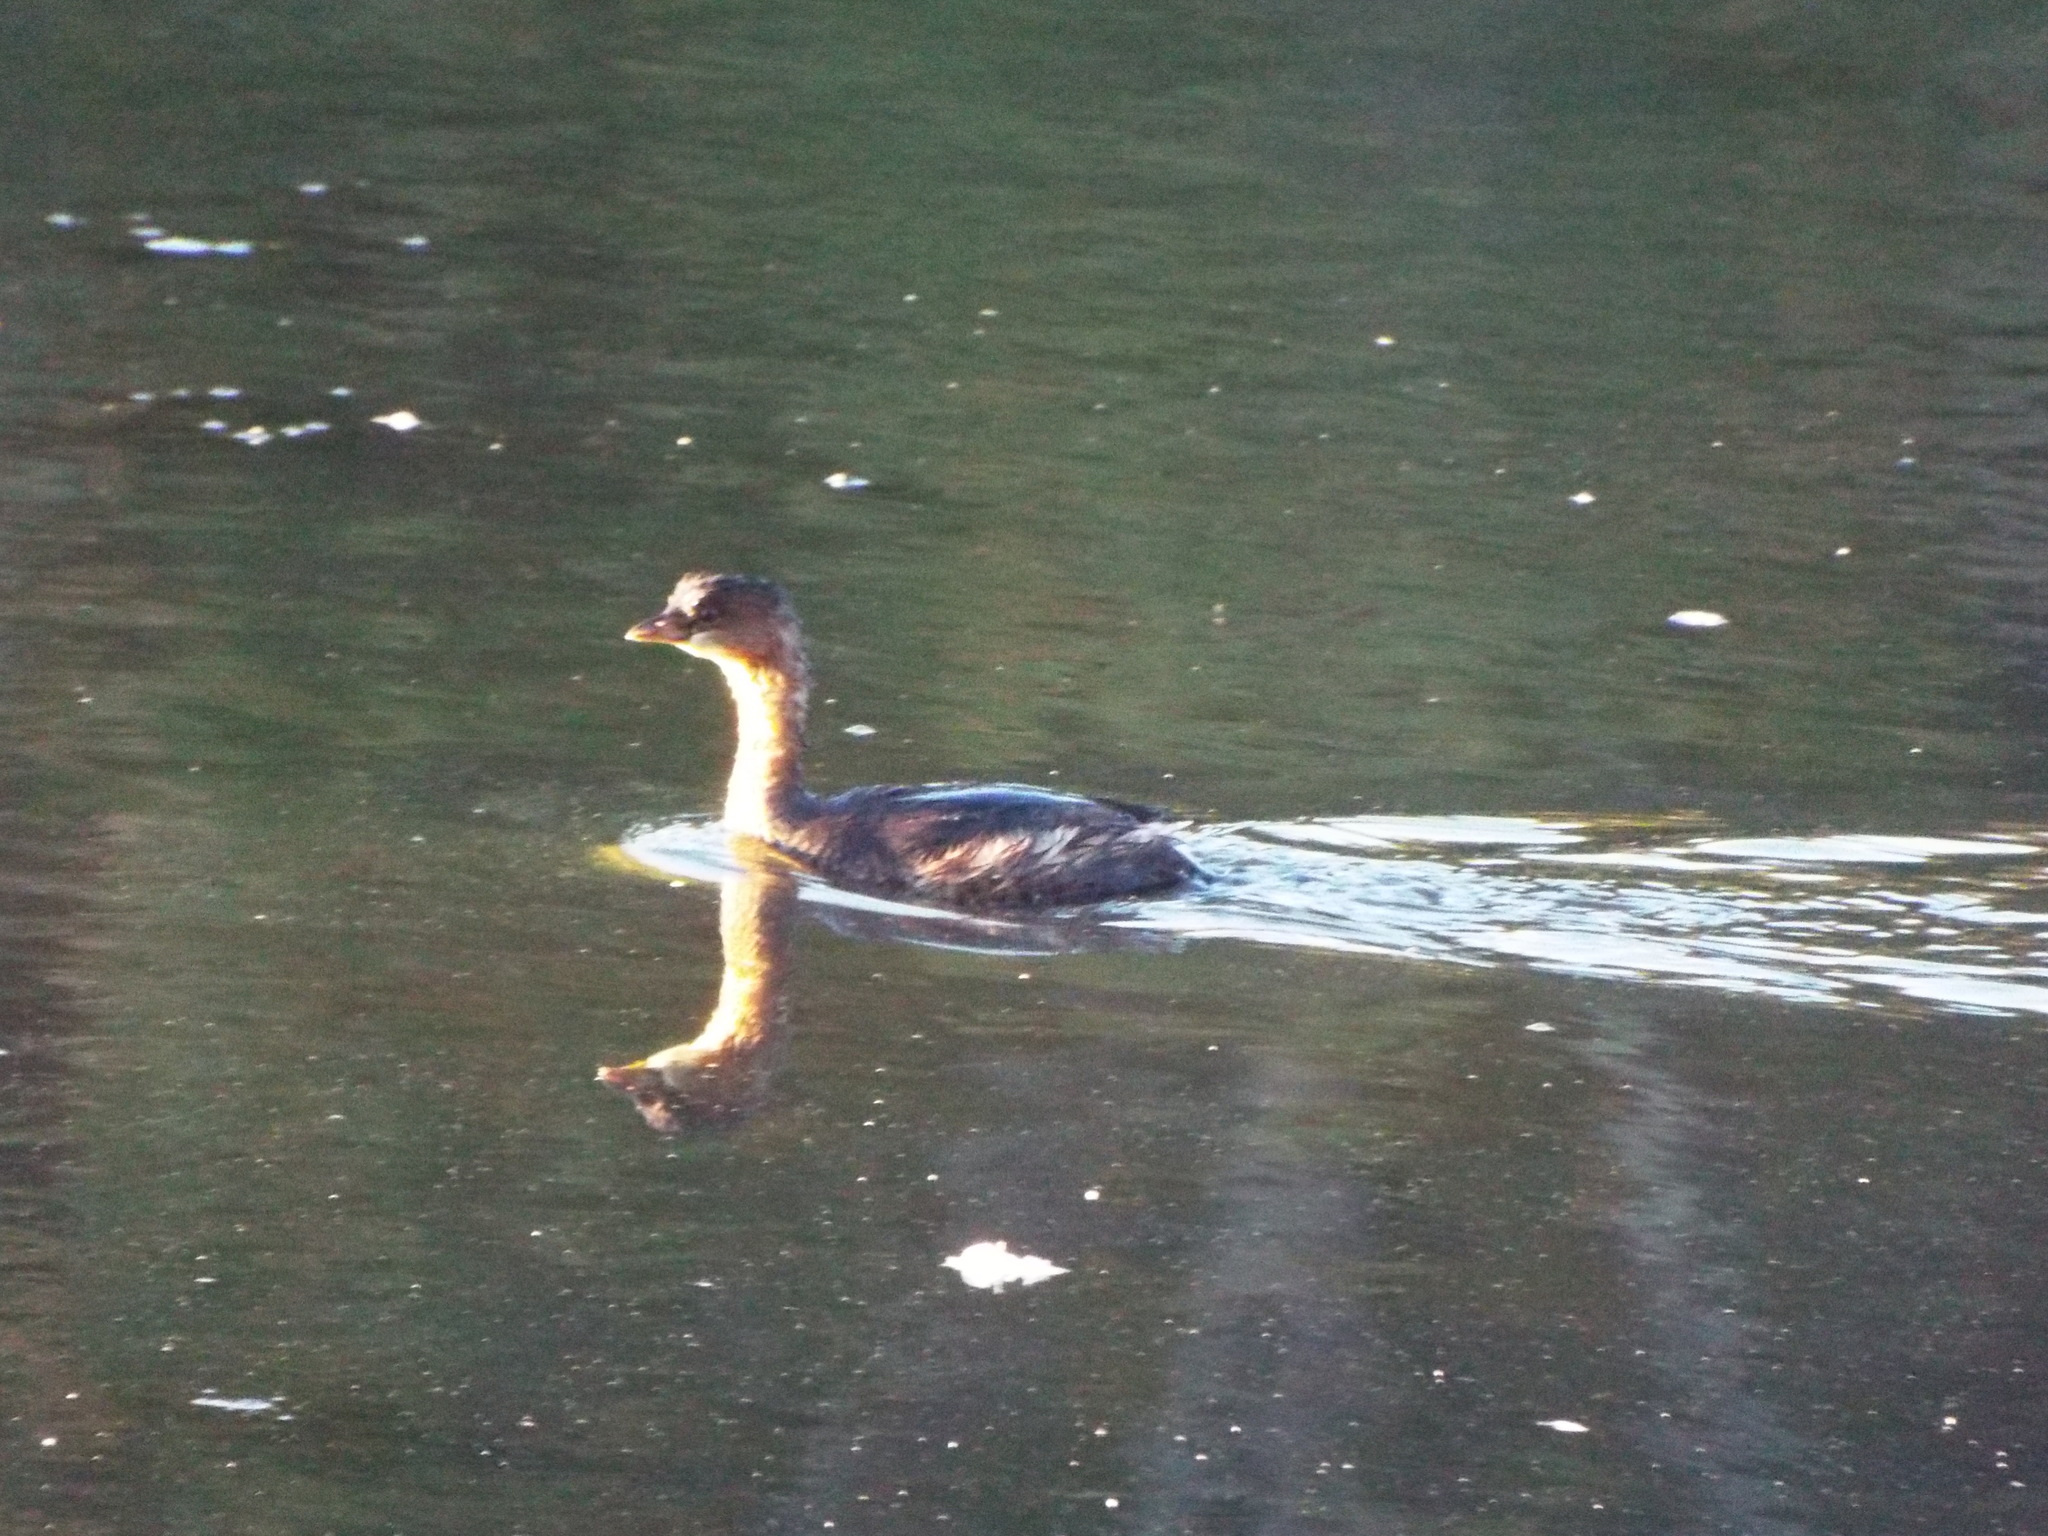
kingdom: Animalia
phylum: Chordata
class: Aves
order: Podicipediformes
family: Podicipedidae
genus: Podilymbus
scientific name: Podilymbus podiceps
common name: Pied-billed grebe
